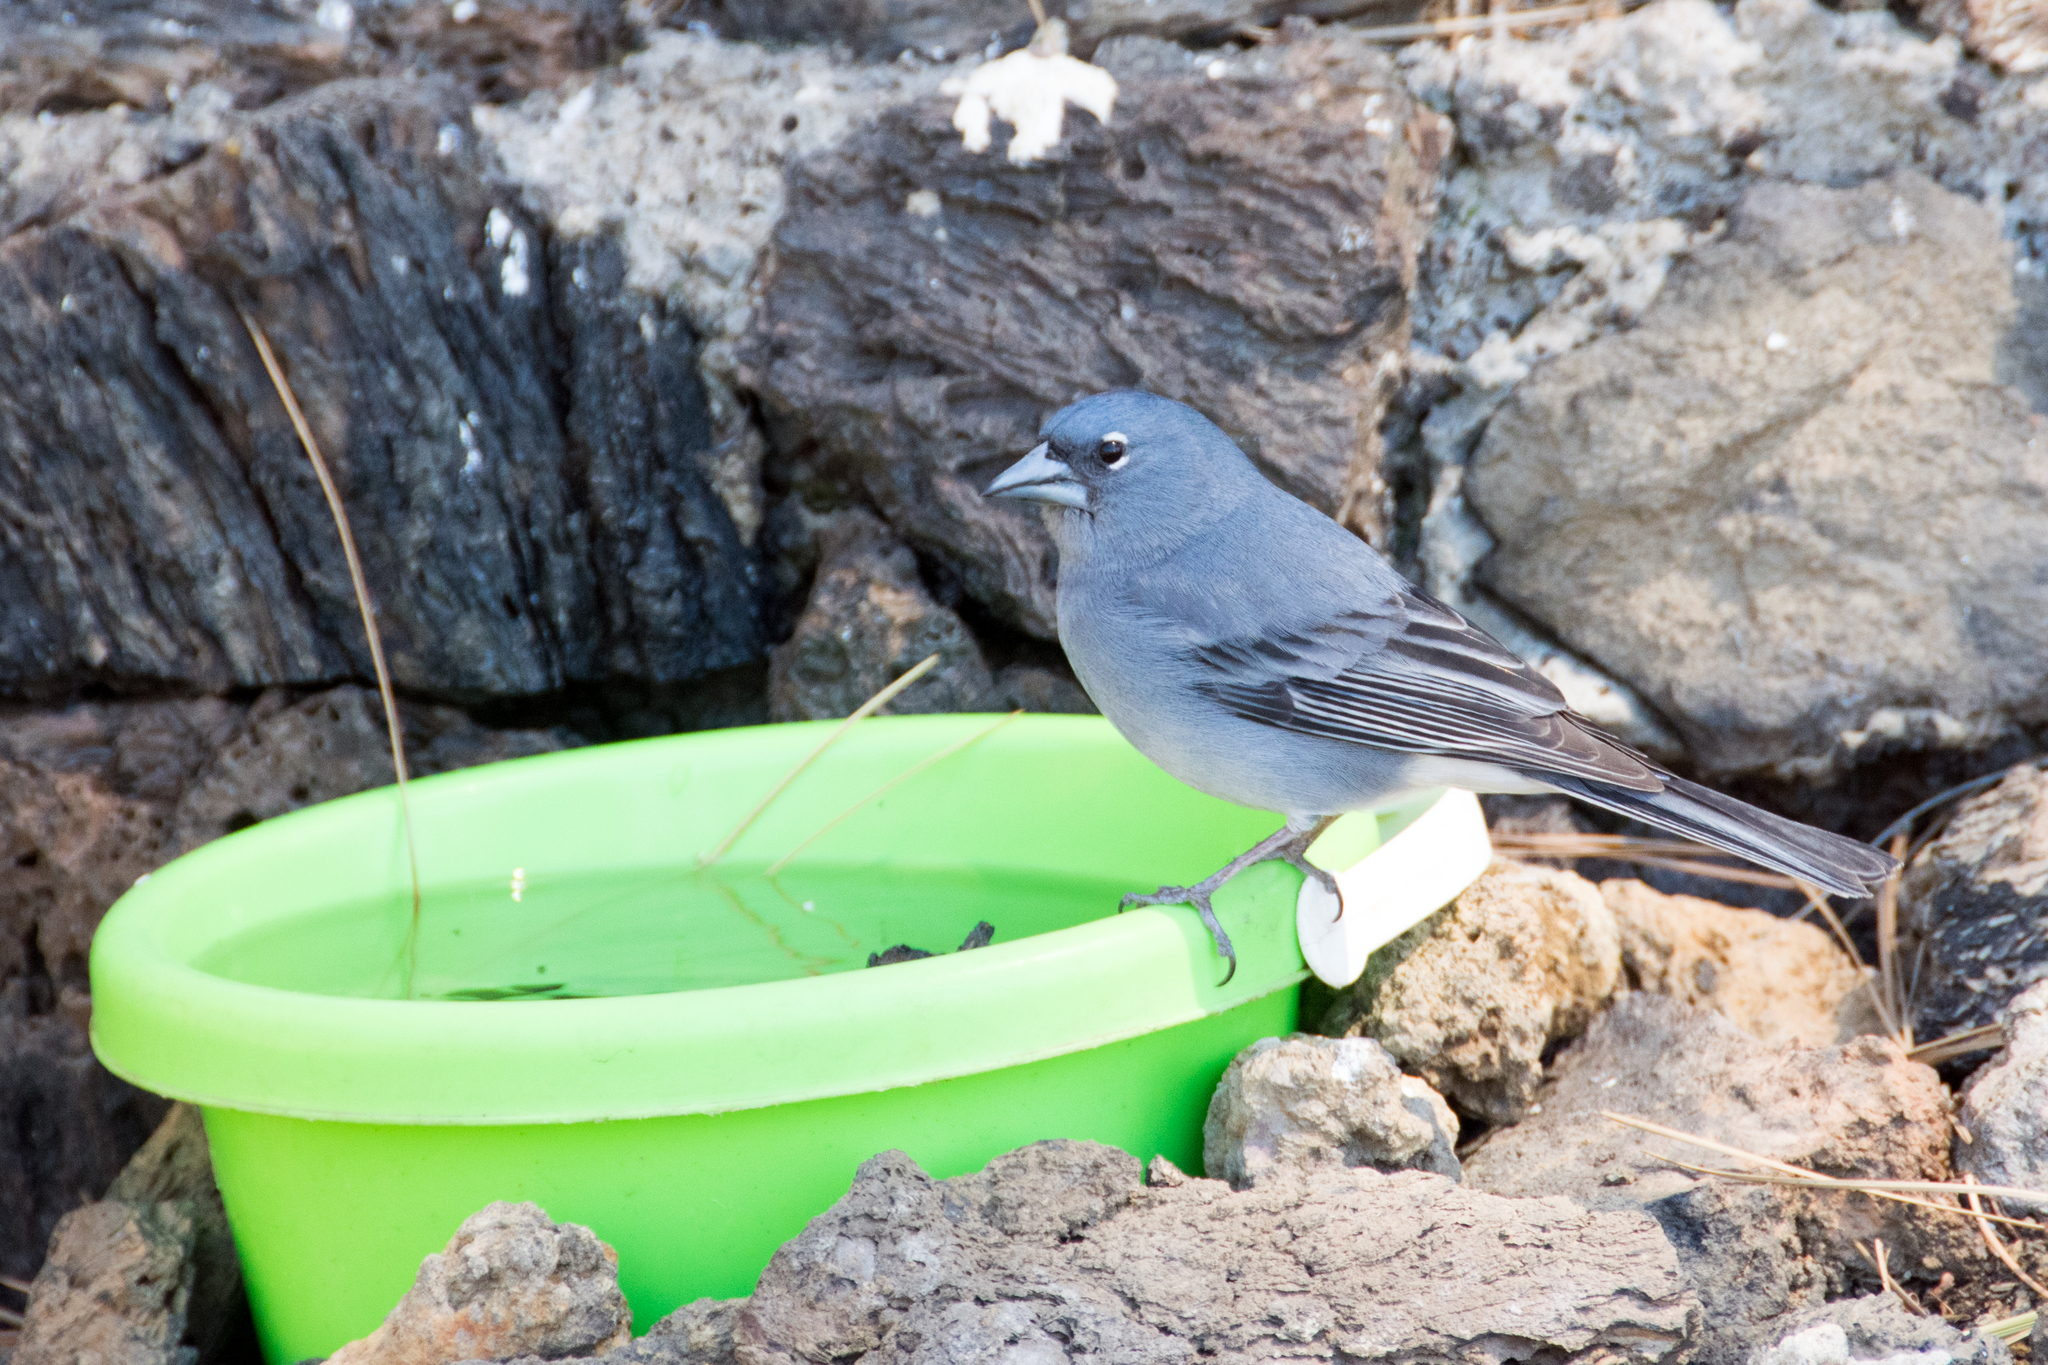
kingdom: Animalia
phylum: Chordata
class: Aves
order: Passeriformes
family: Fringillidae
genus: Fringilla
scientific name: Fringilla teydea
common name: Blue chaffinch
